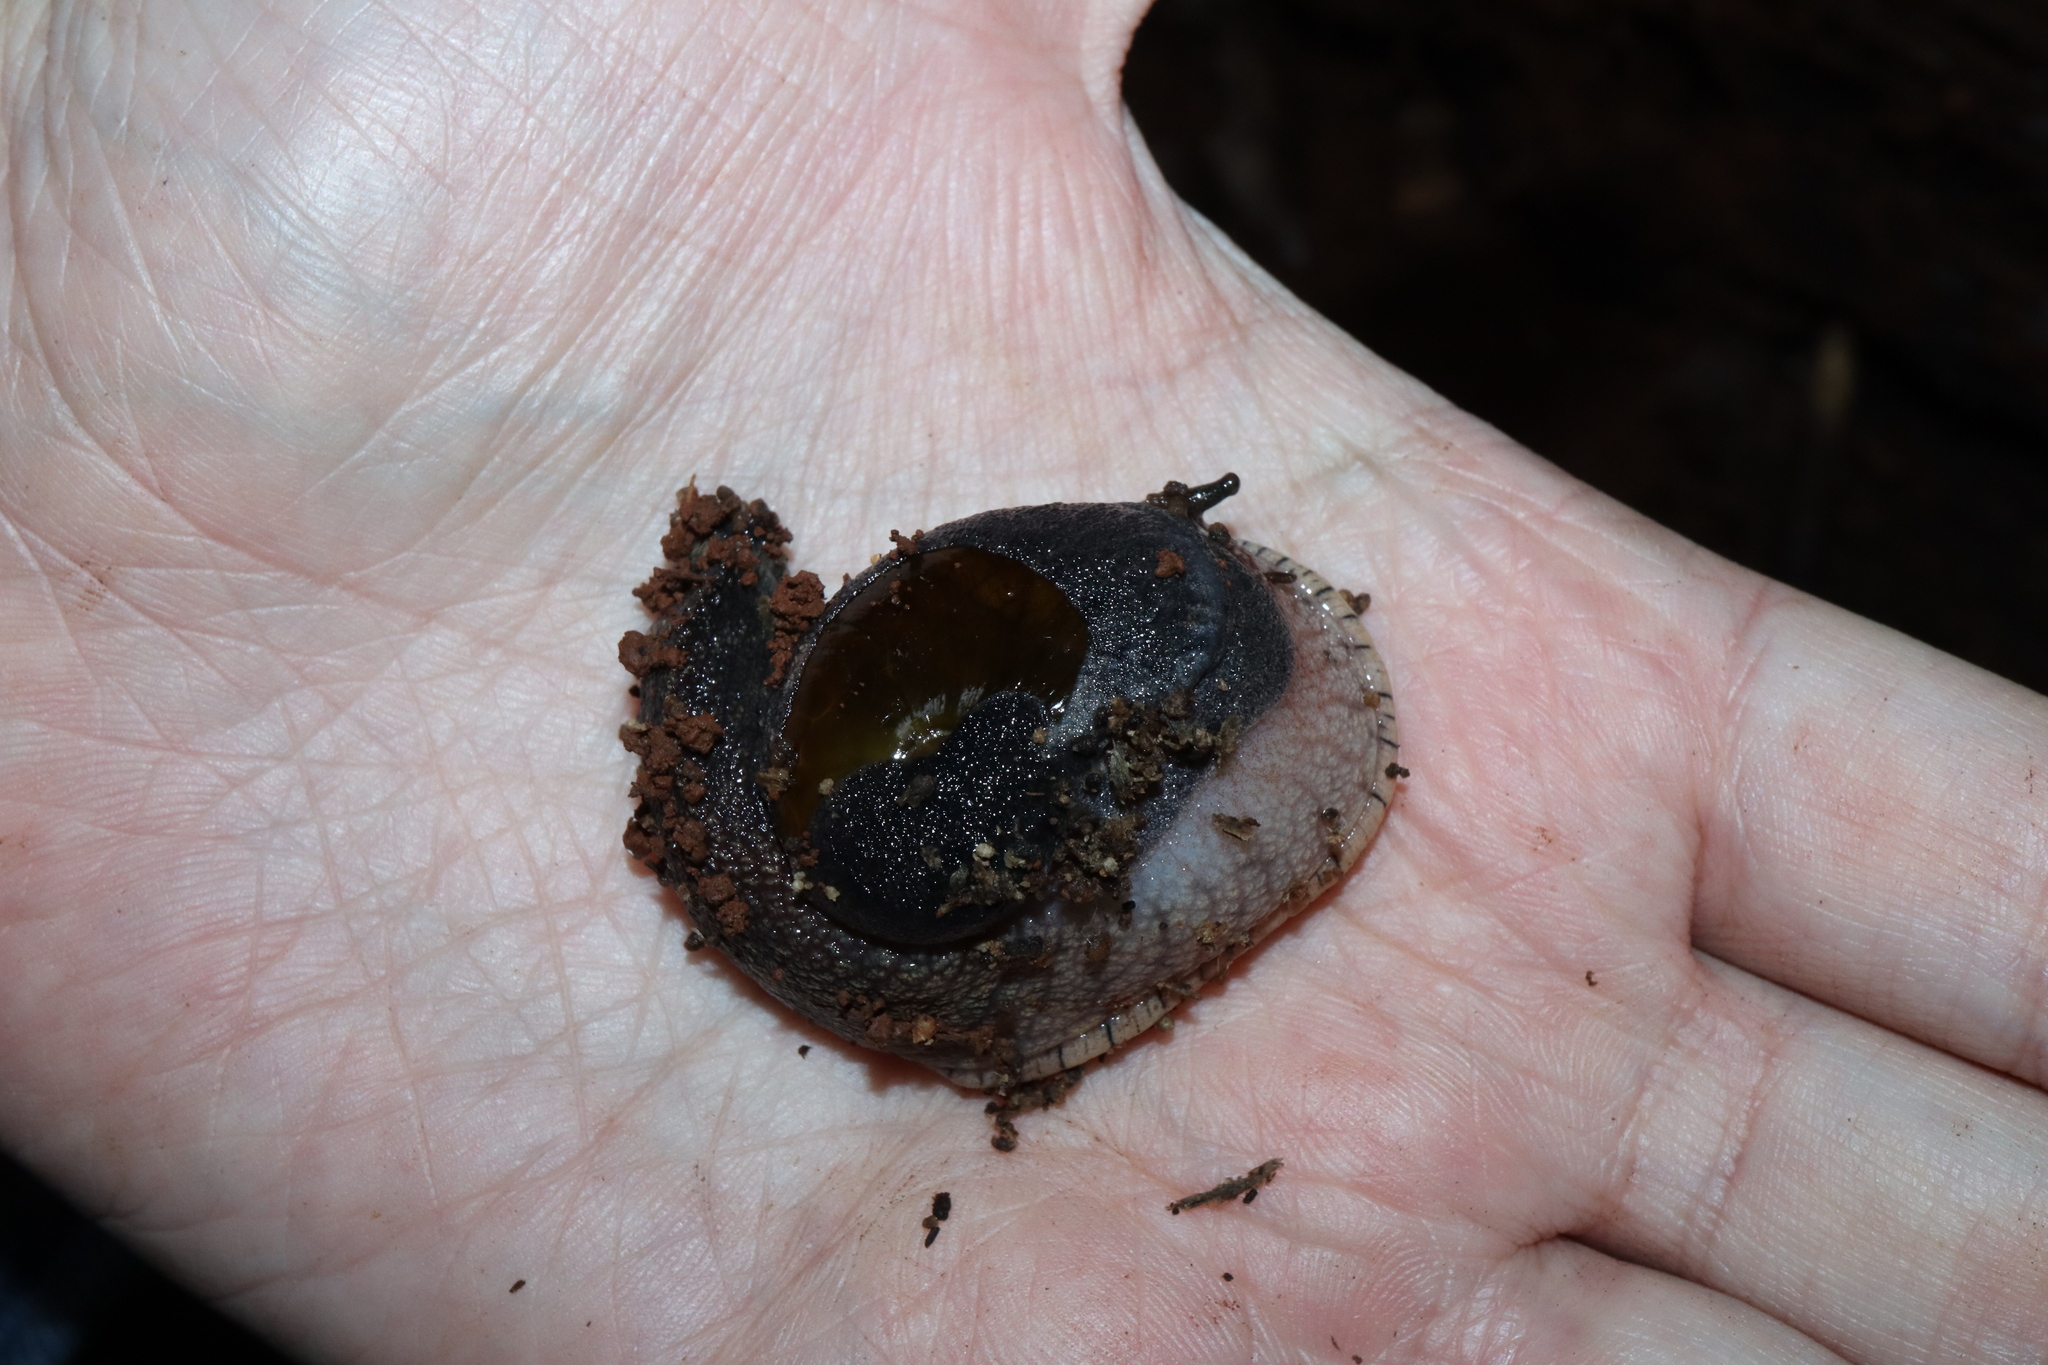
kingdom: Animalia
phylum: Mollusca
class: Gastropoda
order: Stylommatophora
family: Helicarionidae
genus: Parmavitrina
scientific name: Parmavitrina planilabris
